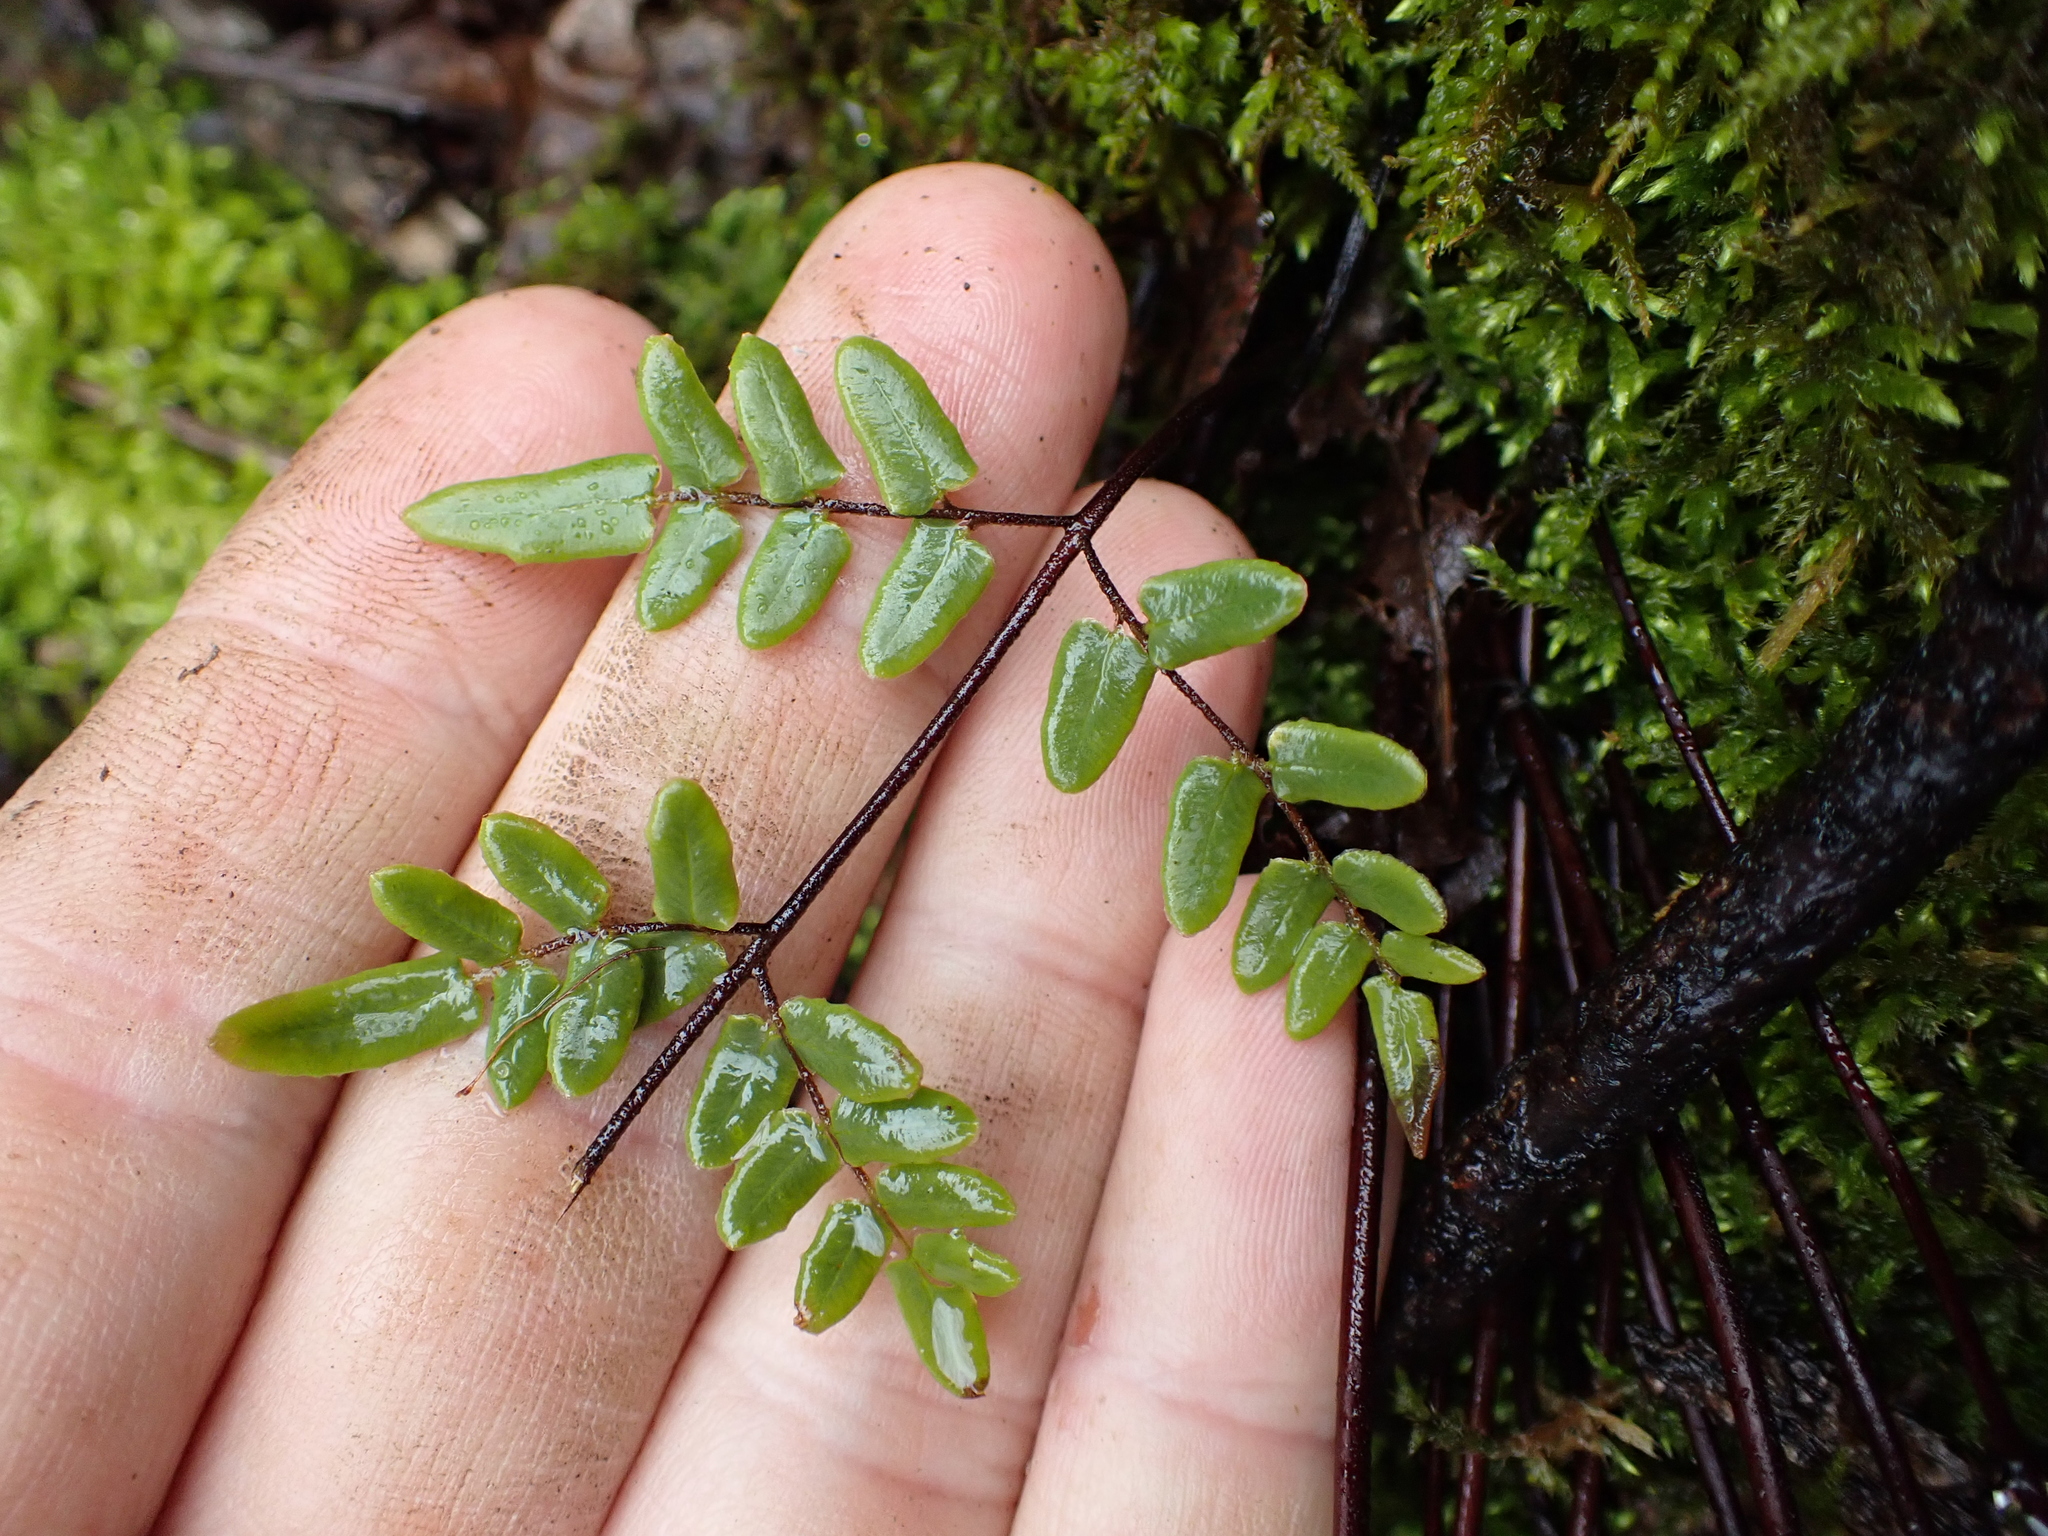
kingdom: Plantae
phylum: Tracheophyta
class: Polypodiopsida
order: Polypodiales
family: Pteridaceae
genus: Pellaea
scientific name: Pellaea atropurpurea
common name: Hairy cliffbrake
